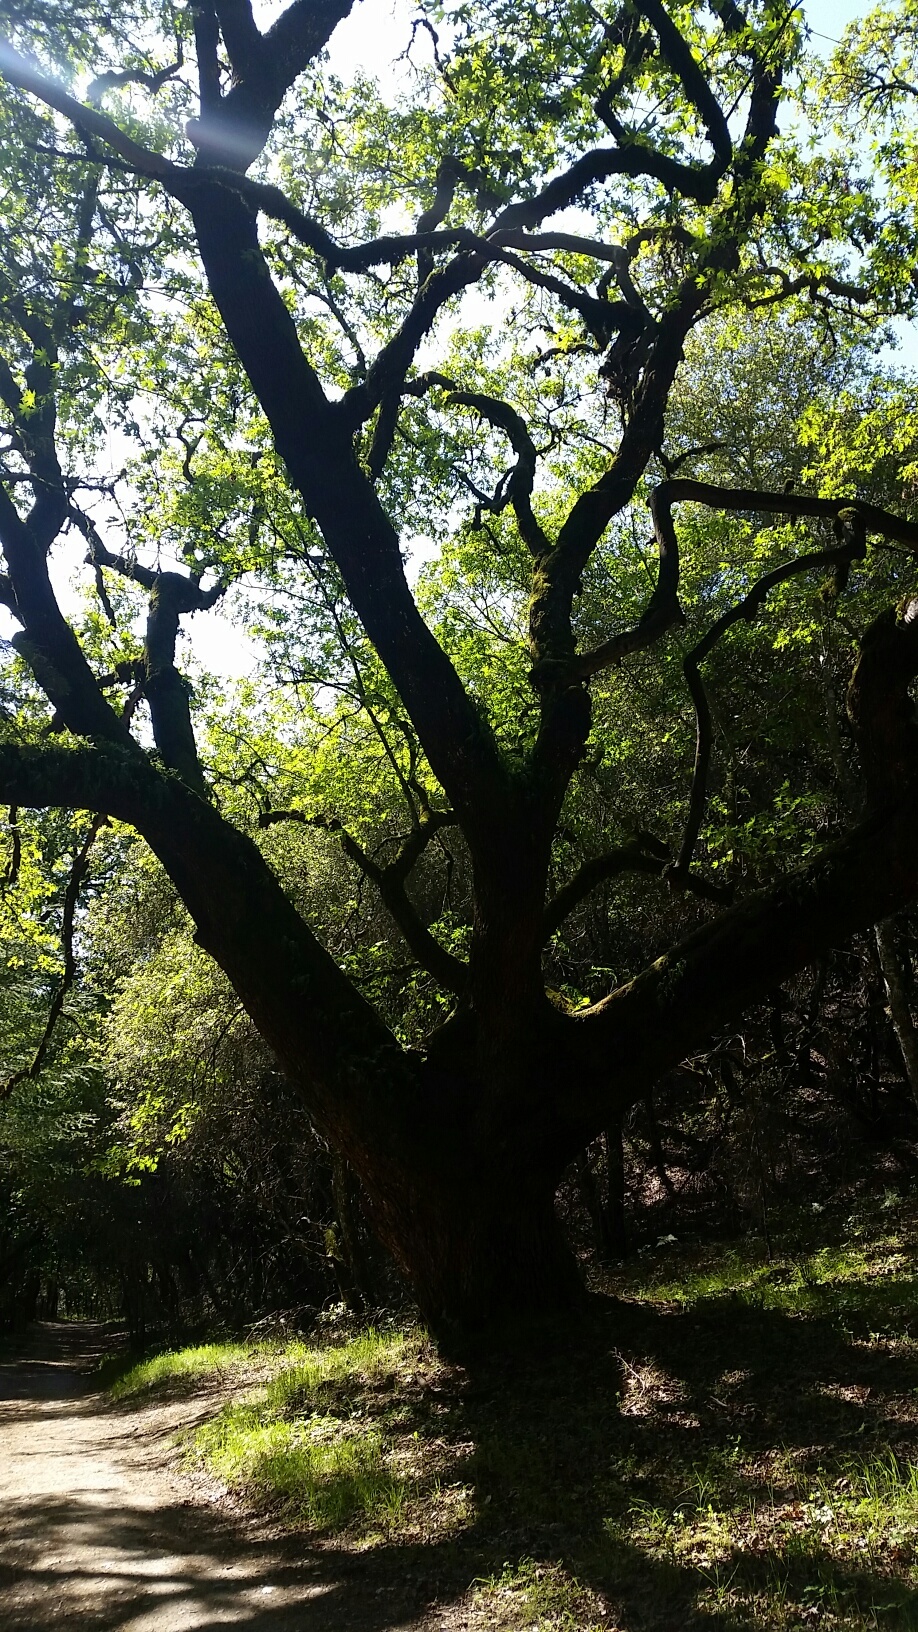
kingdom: Plantae
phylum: Tracheophyta
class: Magnoliopsida
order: Sapindales
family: Sapindaceae
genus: Acer
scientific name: Acer macrophyllum
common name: Oregon maple
